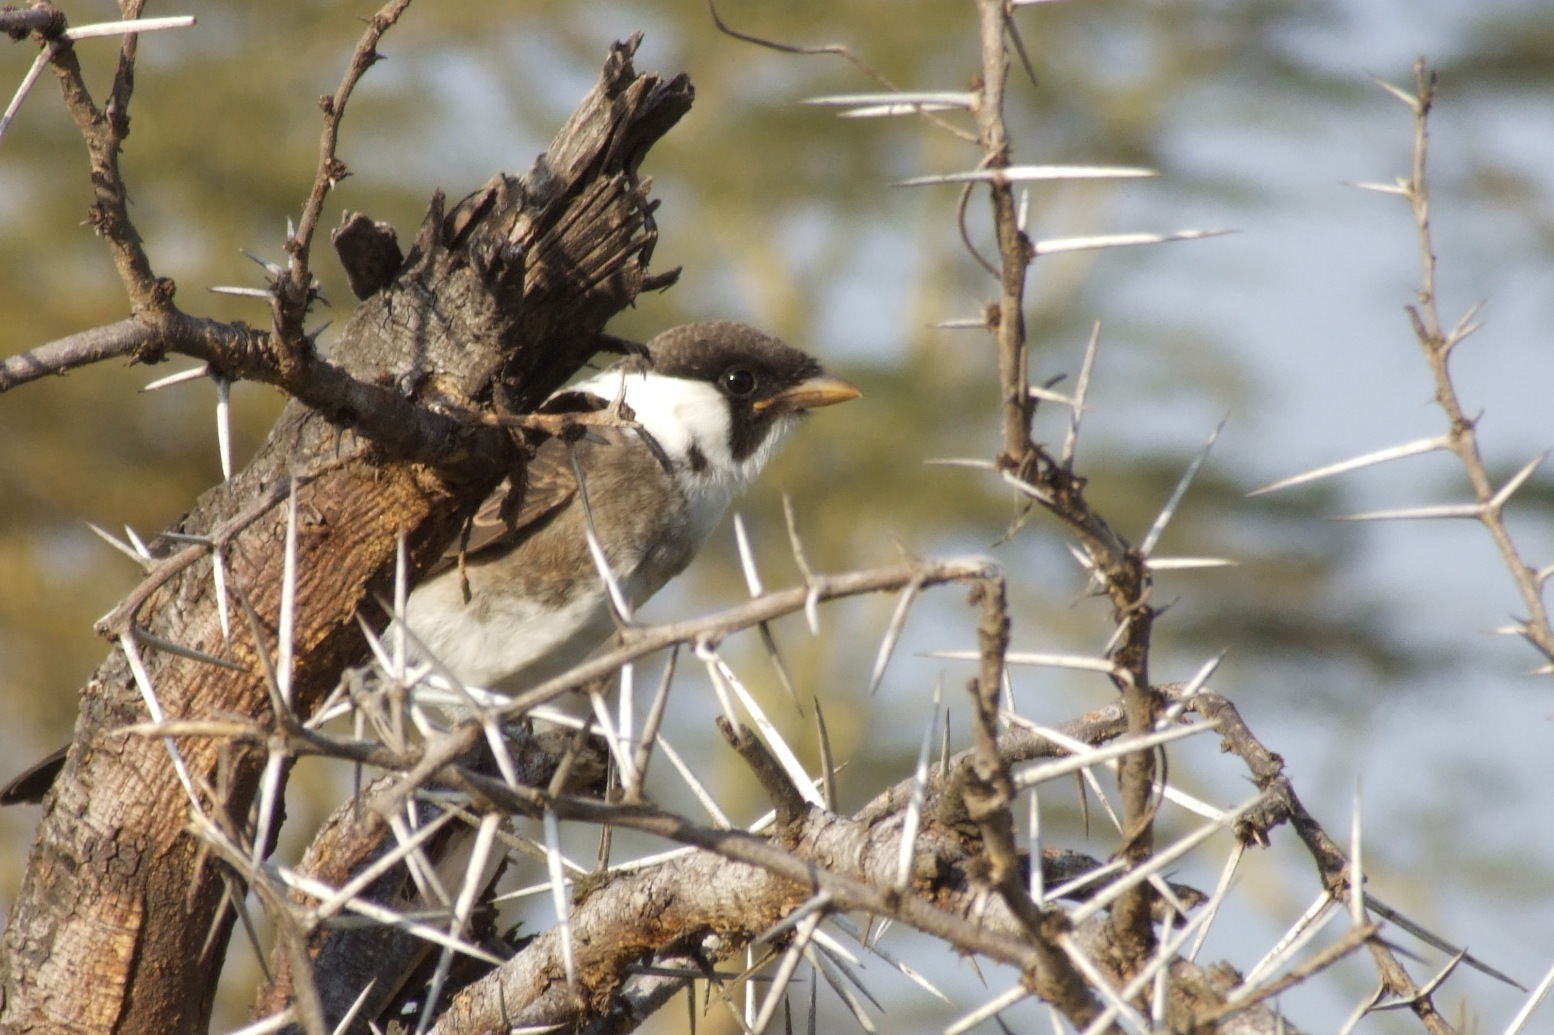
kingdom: Animalia
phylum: Chordata
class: Aves
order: Passeriformes
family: Laniidae
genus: Eurocephalus
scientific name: Eurocephalus ruppelli
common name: Northern white-crowned shrike
